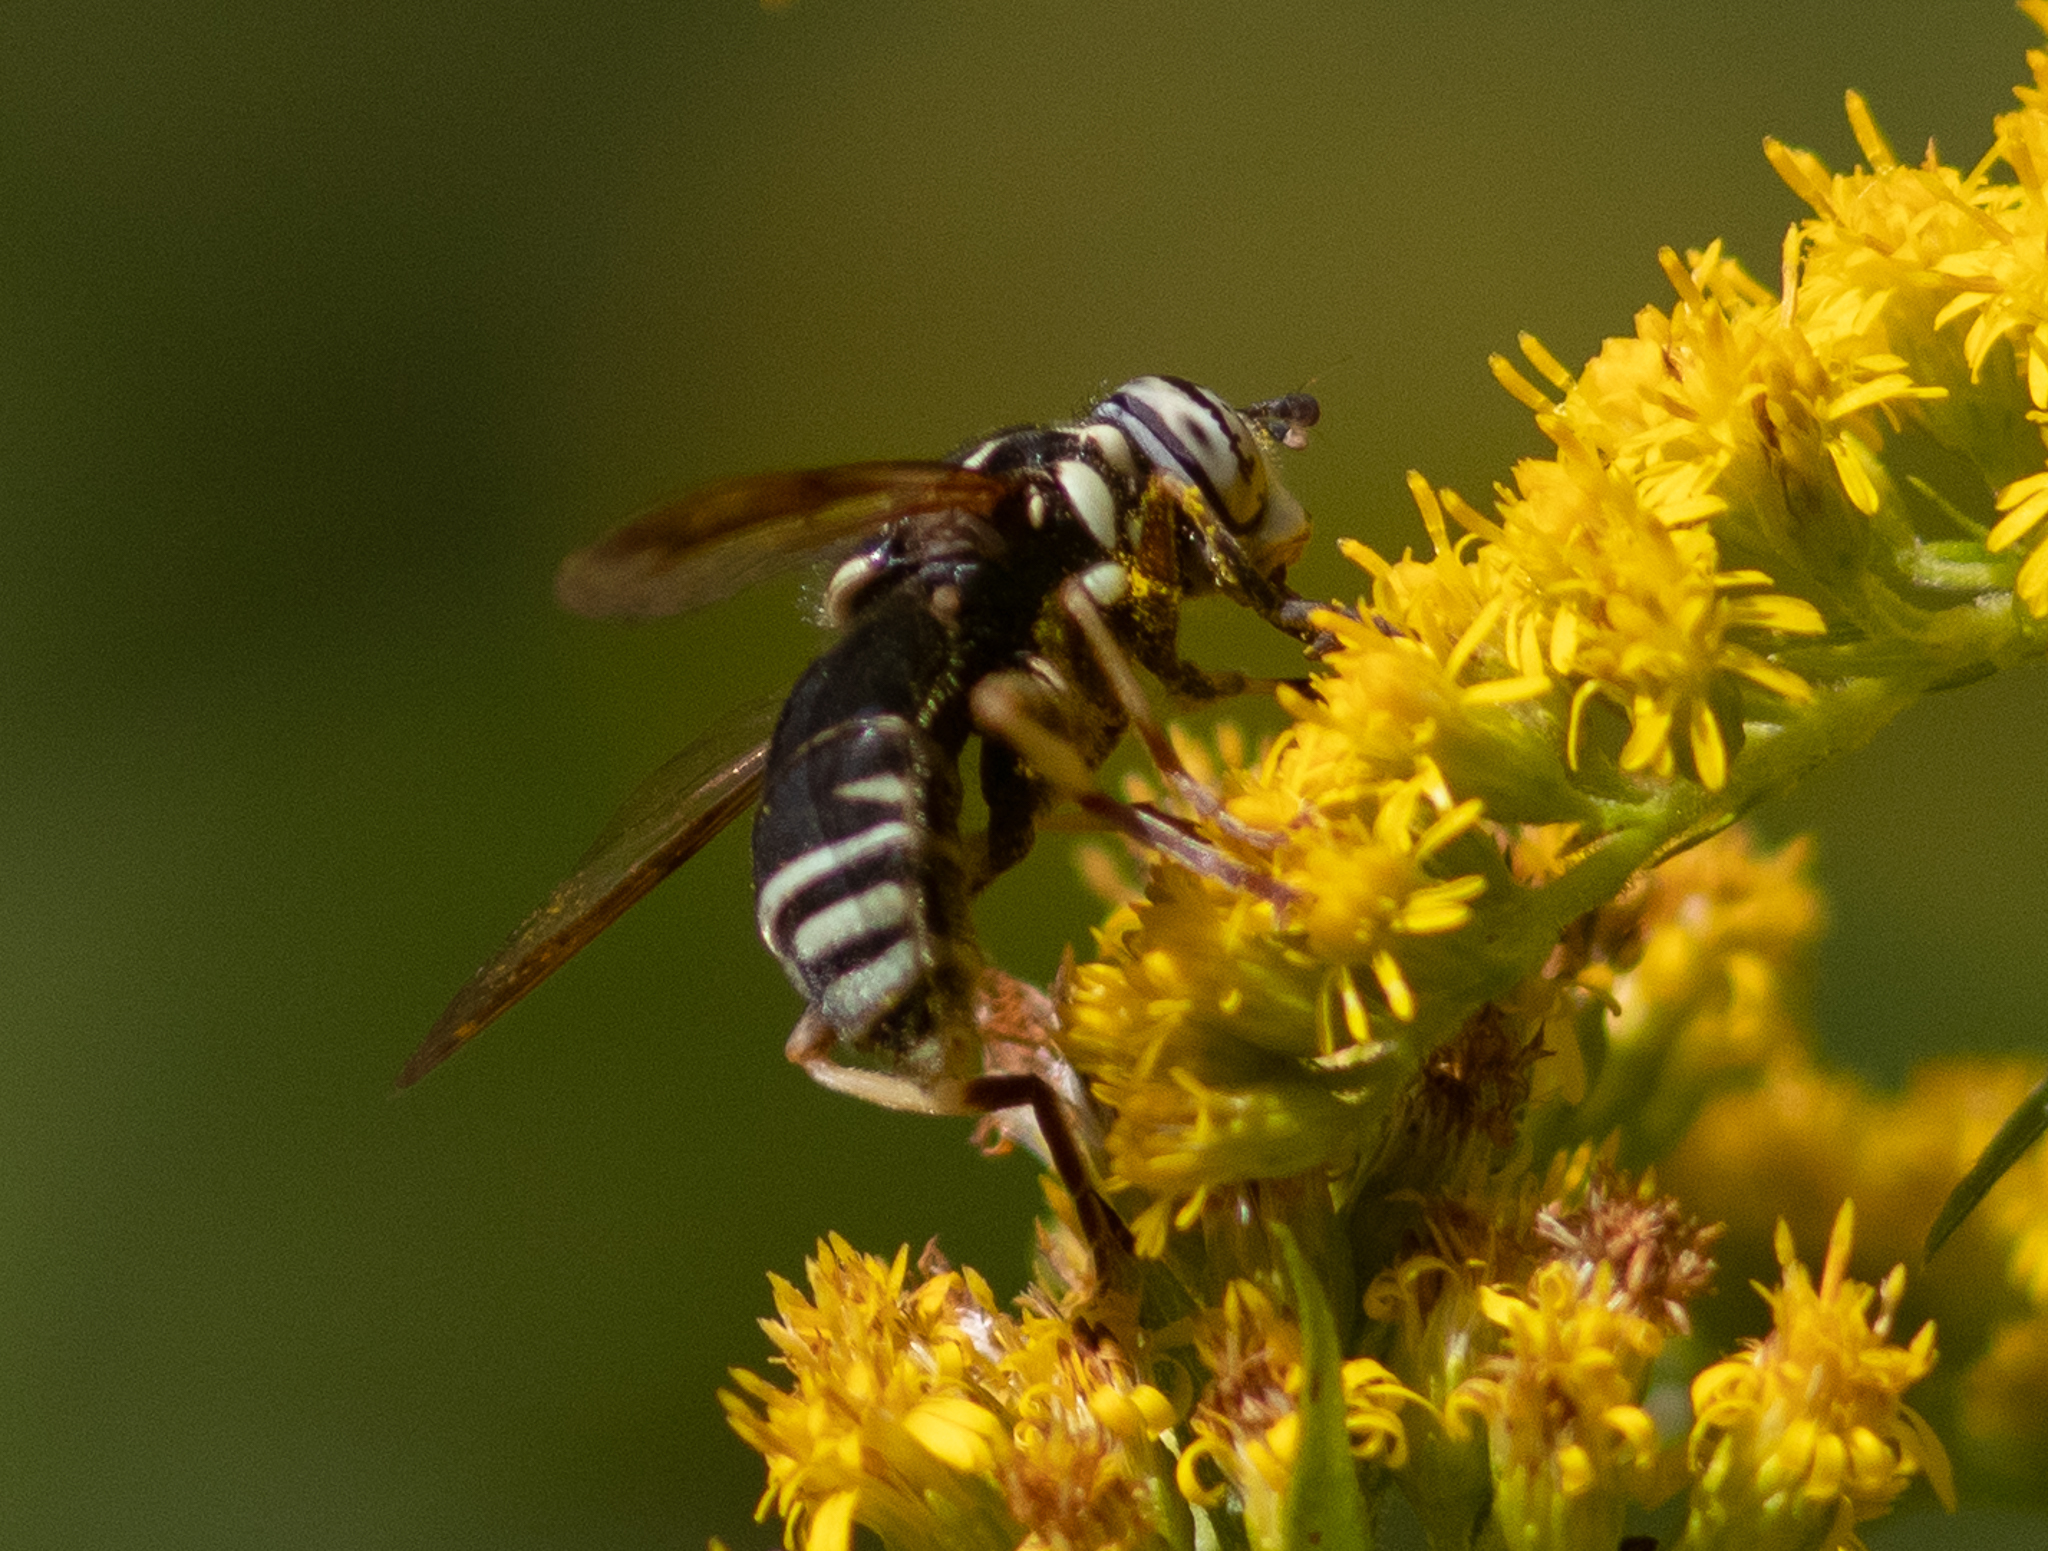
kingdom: Animalia
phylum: Arthropoda
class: Insecta
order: Diptera
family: Syrphidae
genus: Spilomyia
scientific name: Spilomyia fusca
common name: Bald-faced hornet fly
